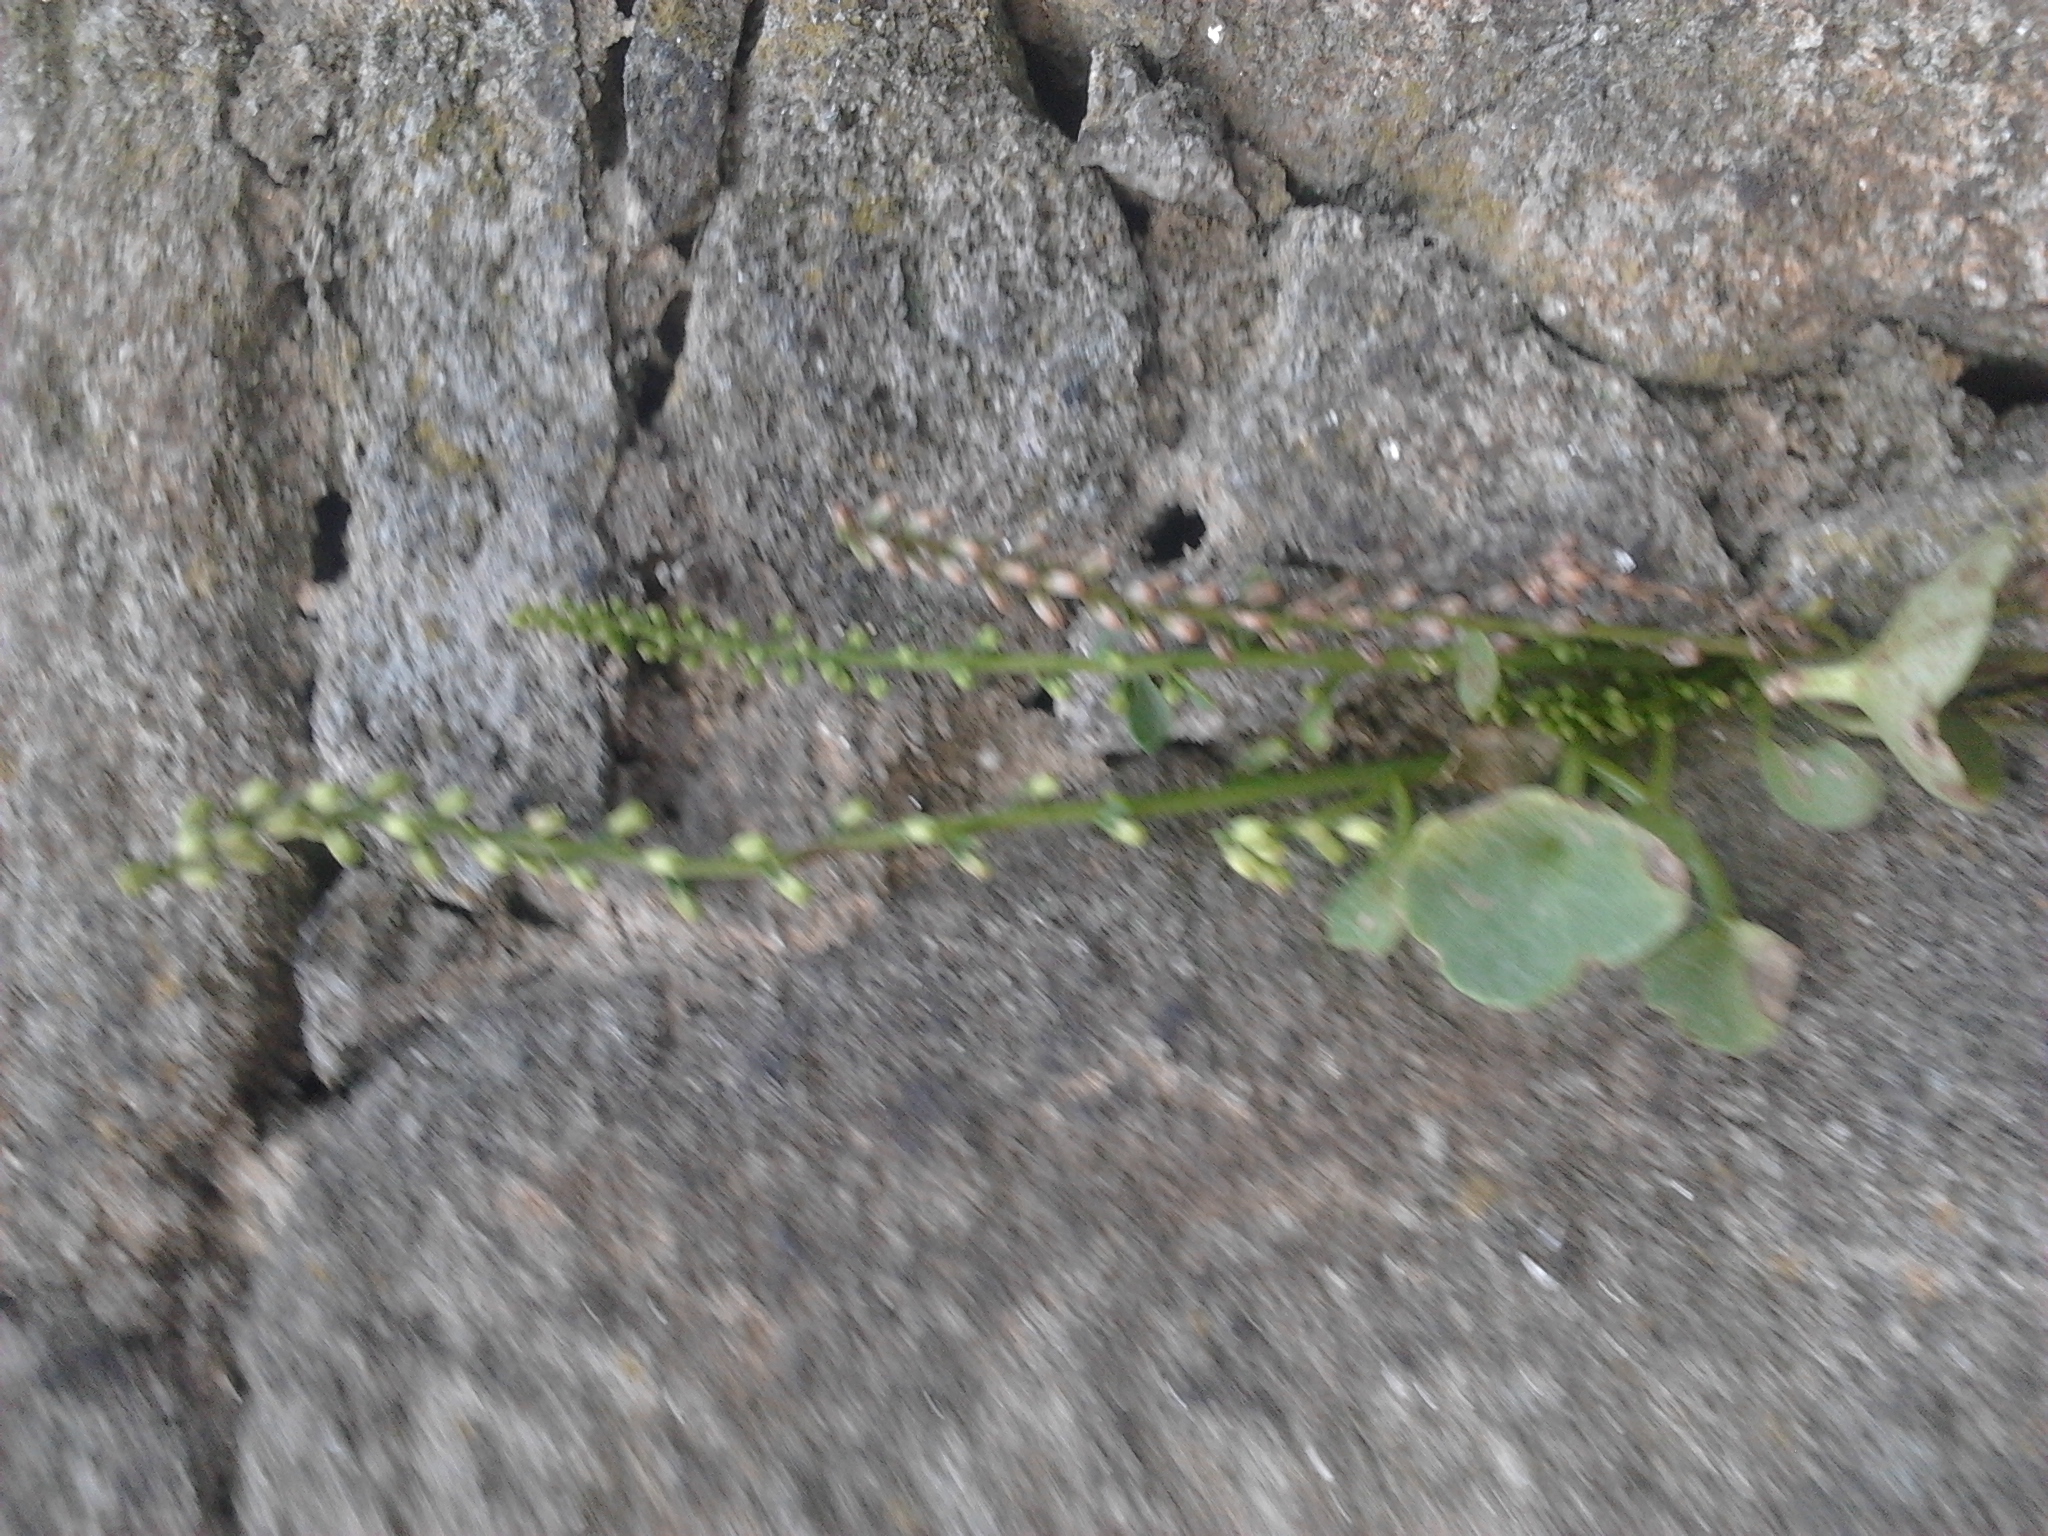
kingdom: Plantae
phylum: Tracheophyta
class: Magnoliopsida
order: Saxifragales
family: Crassulaceae
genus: Umbilicus
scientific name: Umbilicus rupestris
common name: Navelwort
